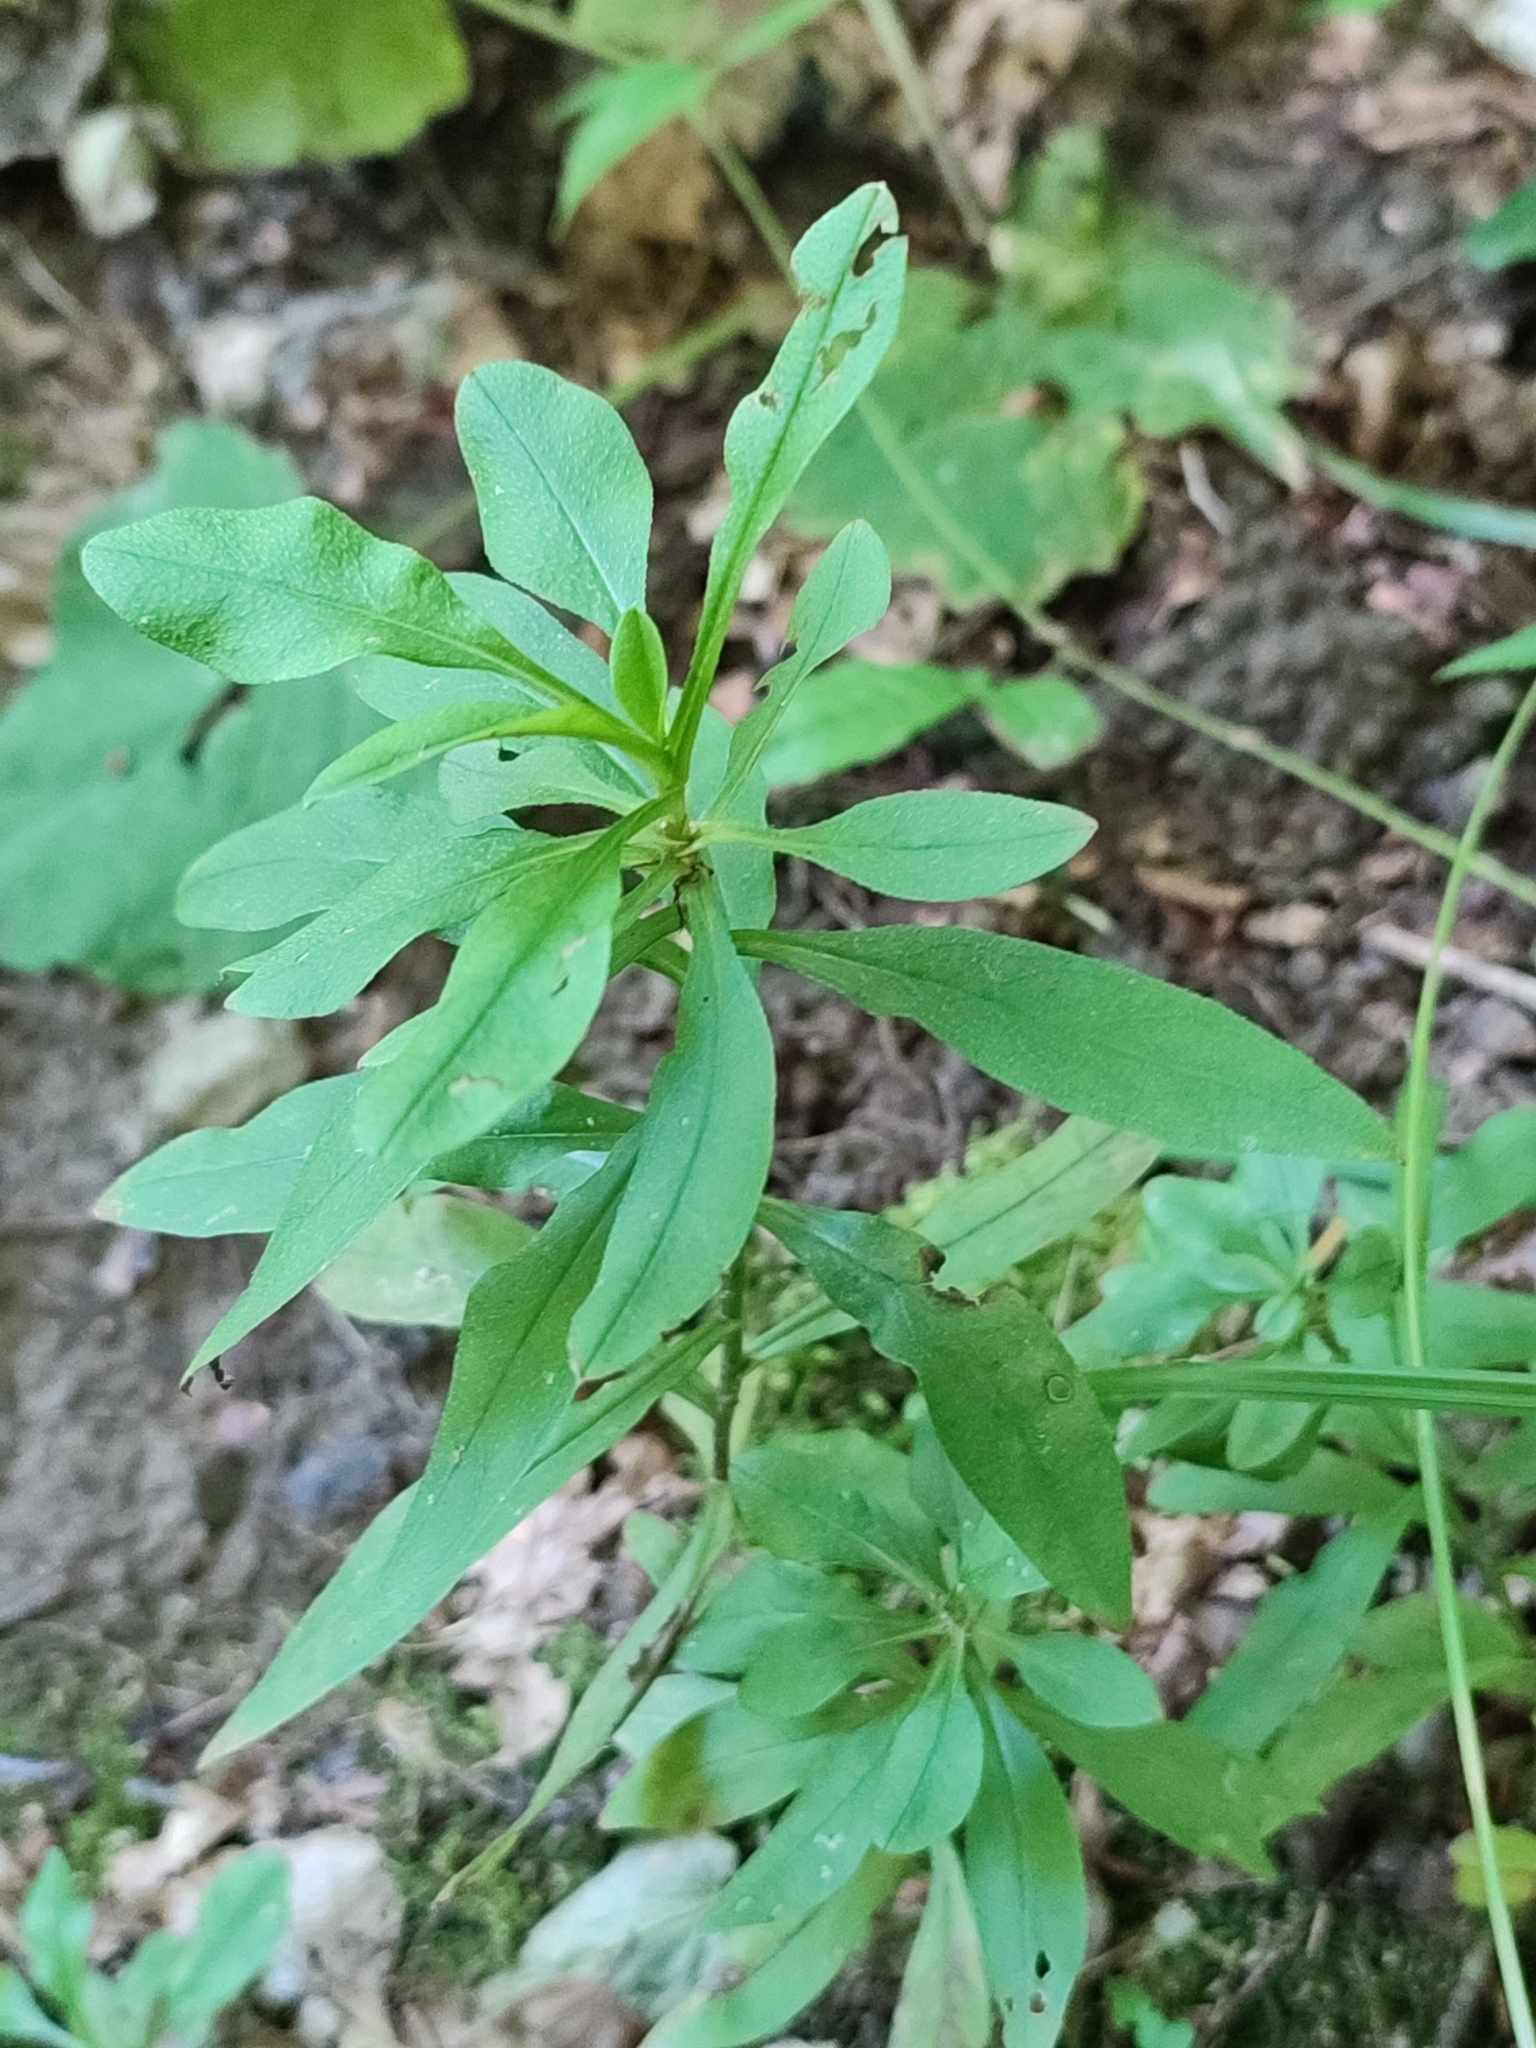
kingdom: Plantae
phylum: Tracheophyta
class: Magnoliopsida
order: Malvales
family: Thymelaeaceae
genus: Daphne
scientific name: Daphne mezereum
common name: Mezereon
